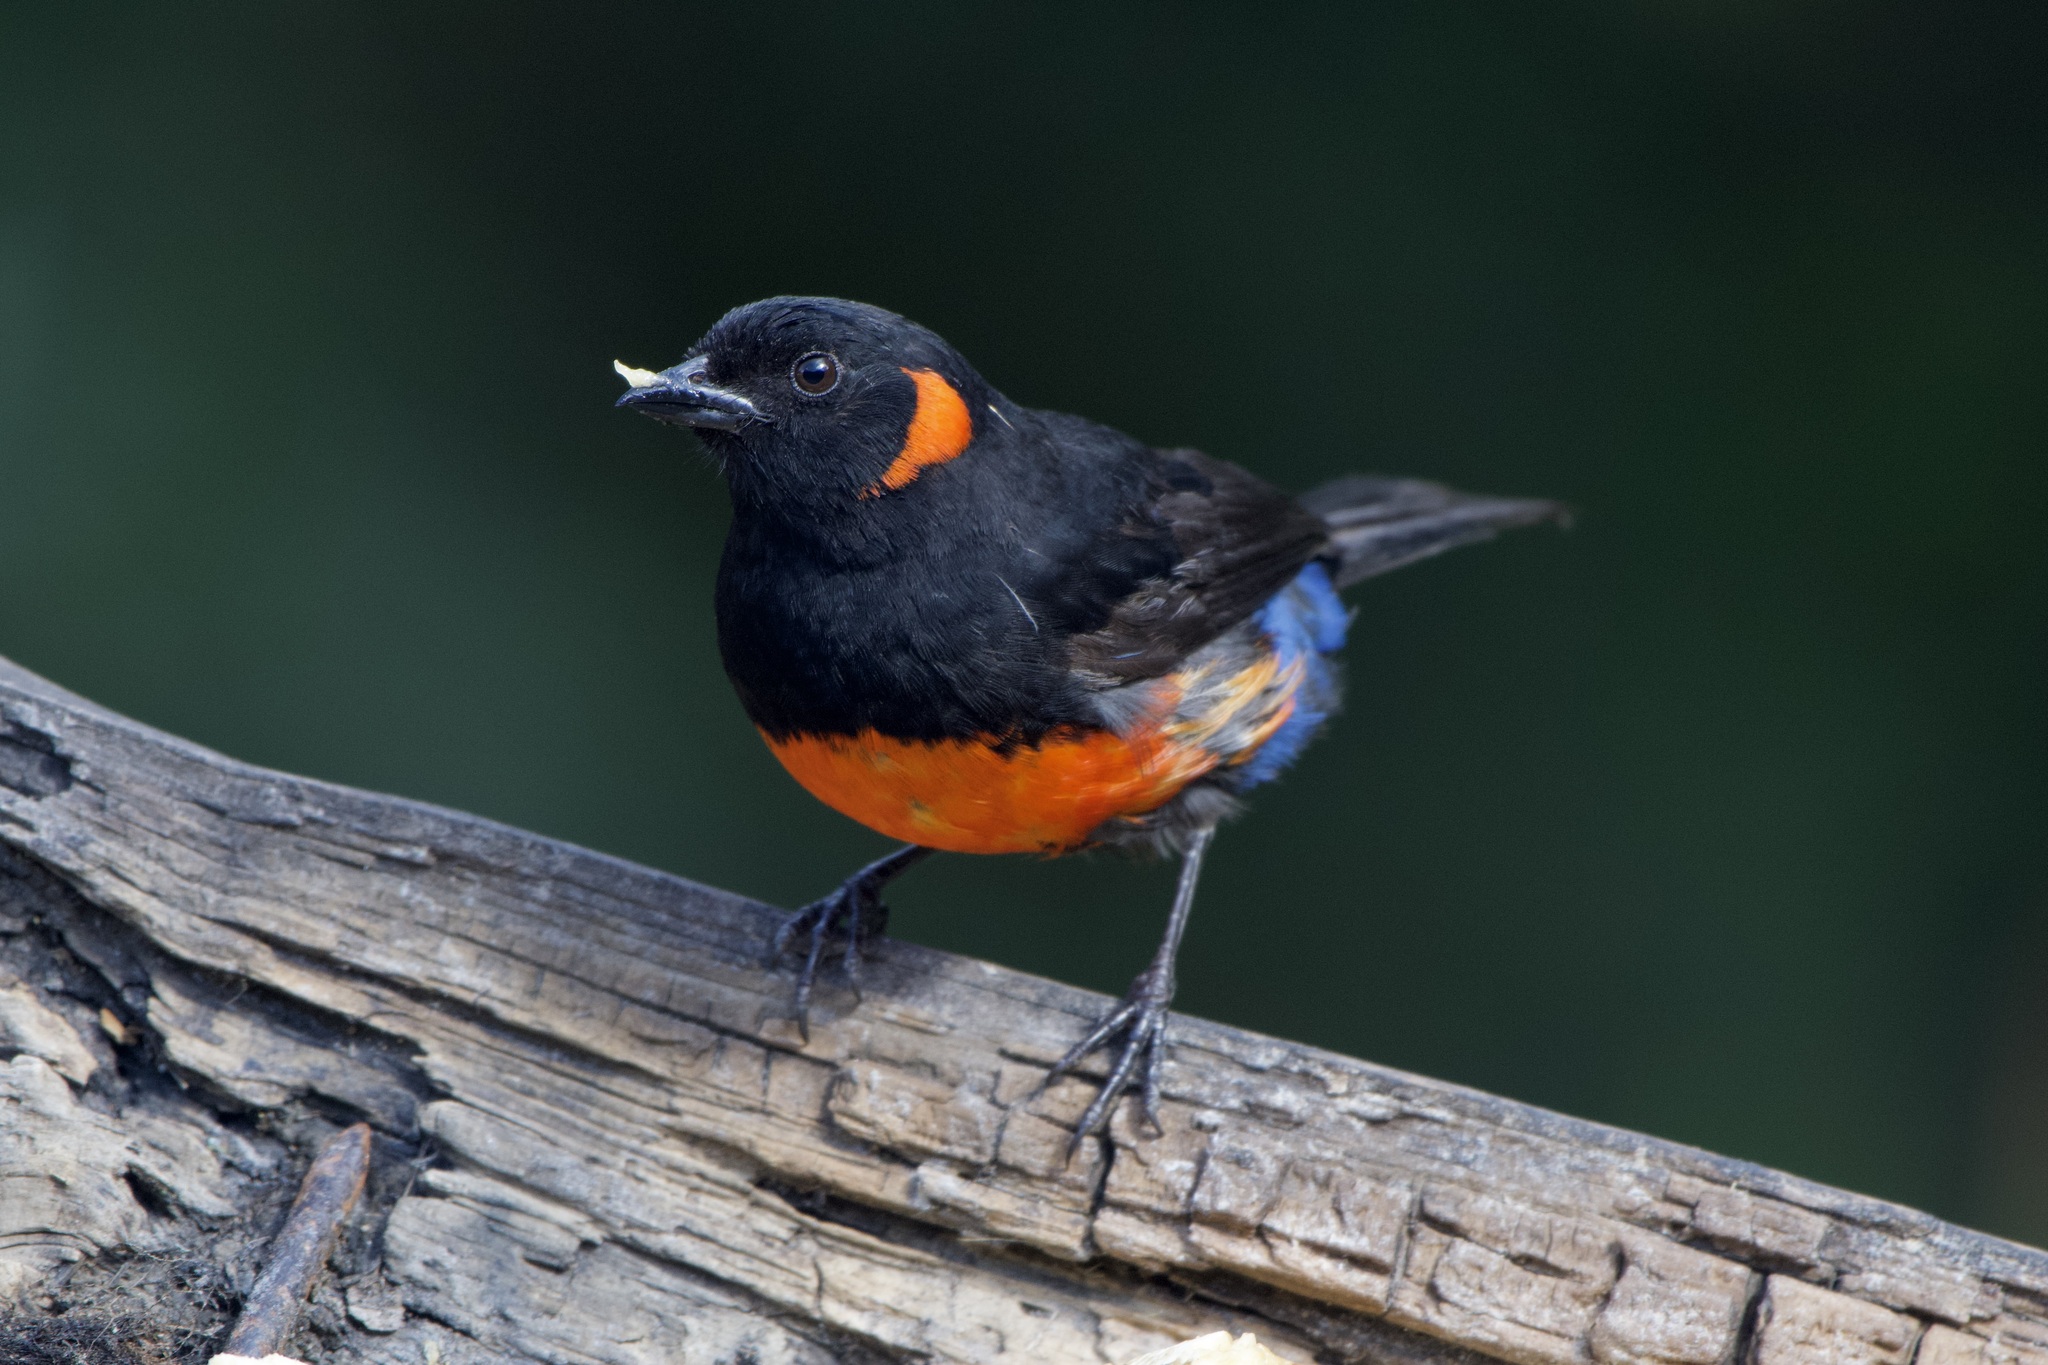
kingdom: Animalia
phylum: Chordata
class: Aves
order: Passeriformes
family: Thraupidae
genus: Anisognathus
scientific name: Anisognathus igniventris
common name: Scarlet-bellied mountain tanager
